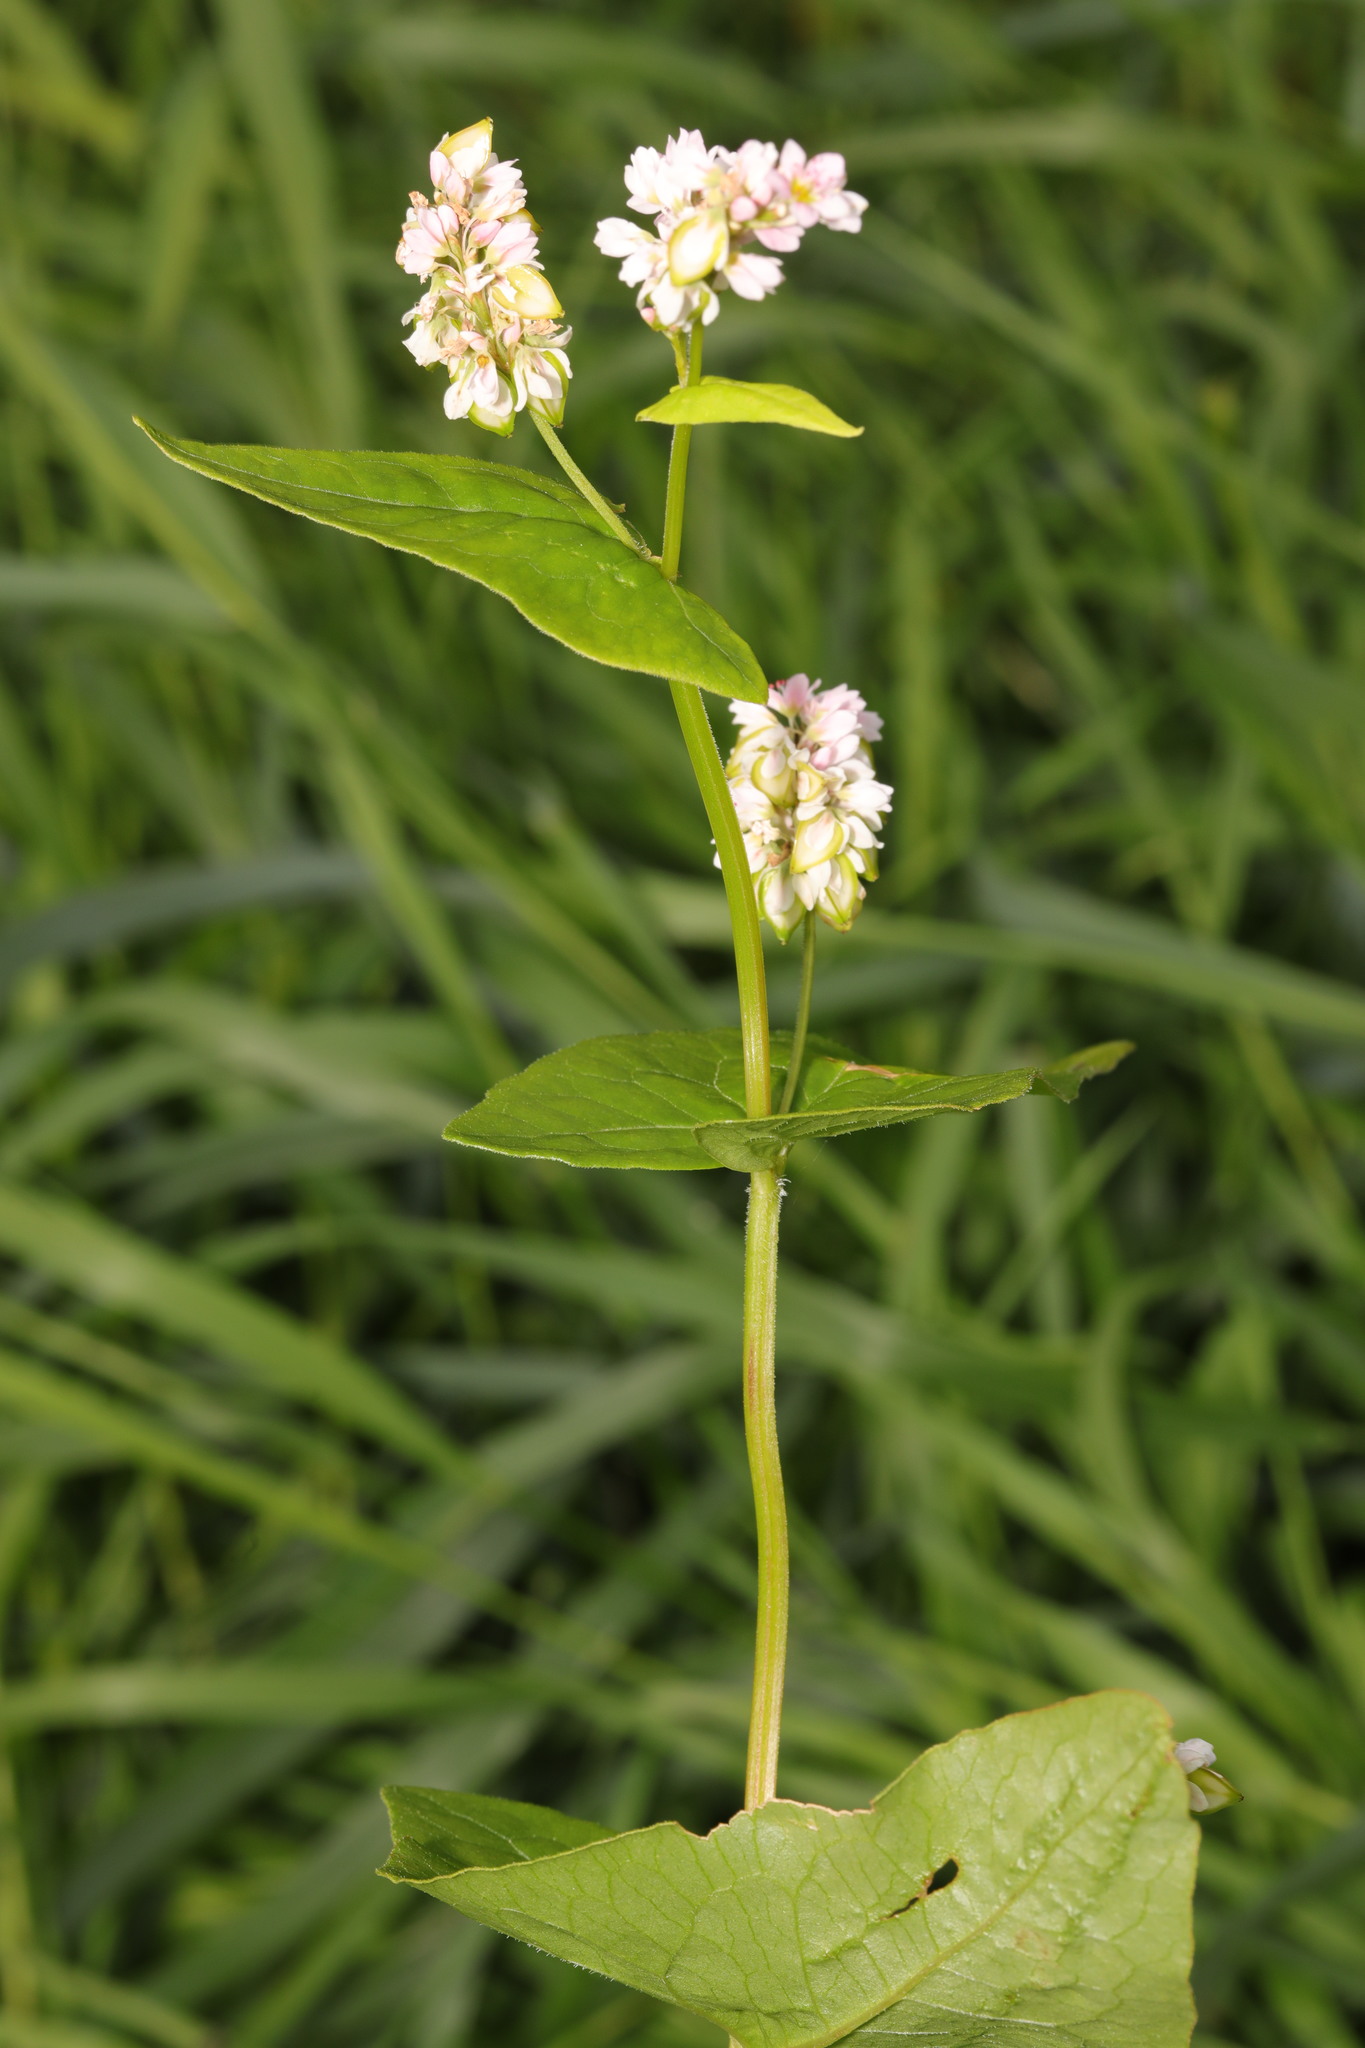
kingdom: Plantae
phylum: Tracheophyta
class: Magnoliopsida
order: Caryophyllales
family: Polygonaceae
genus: Fagopyrum
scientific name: Fagopyrum esculentum
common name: Buckwheat
